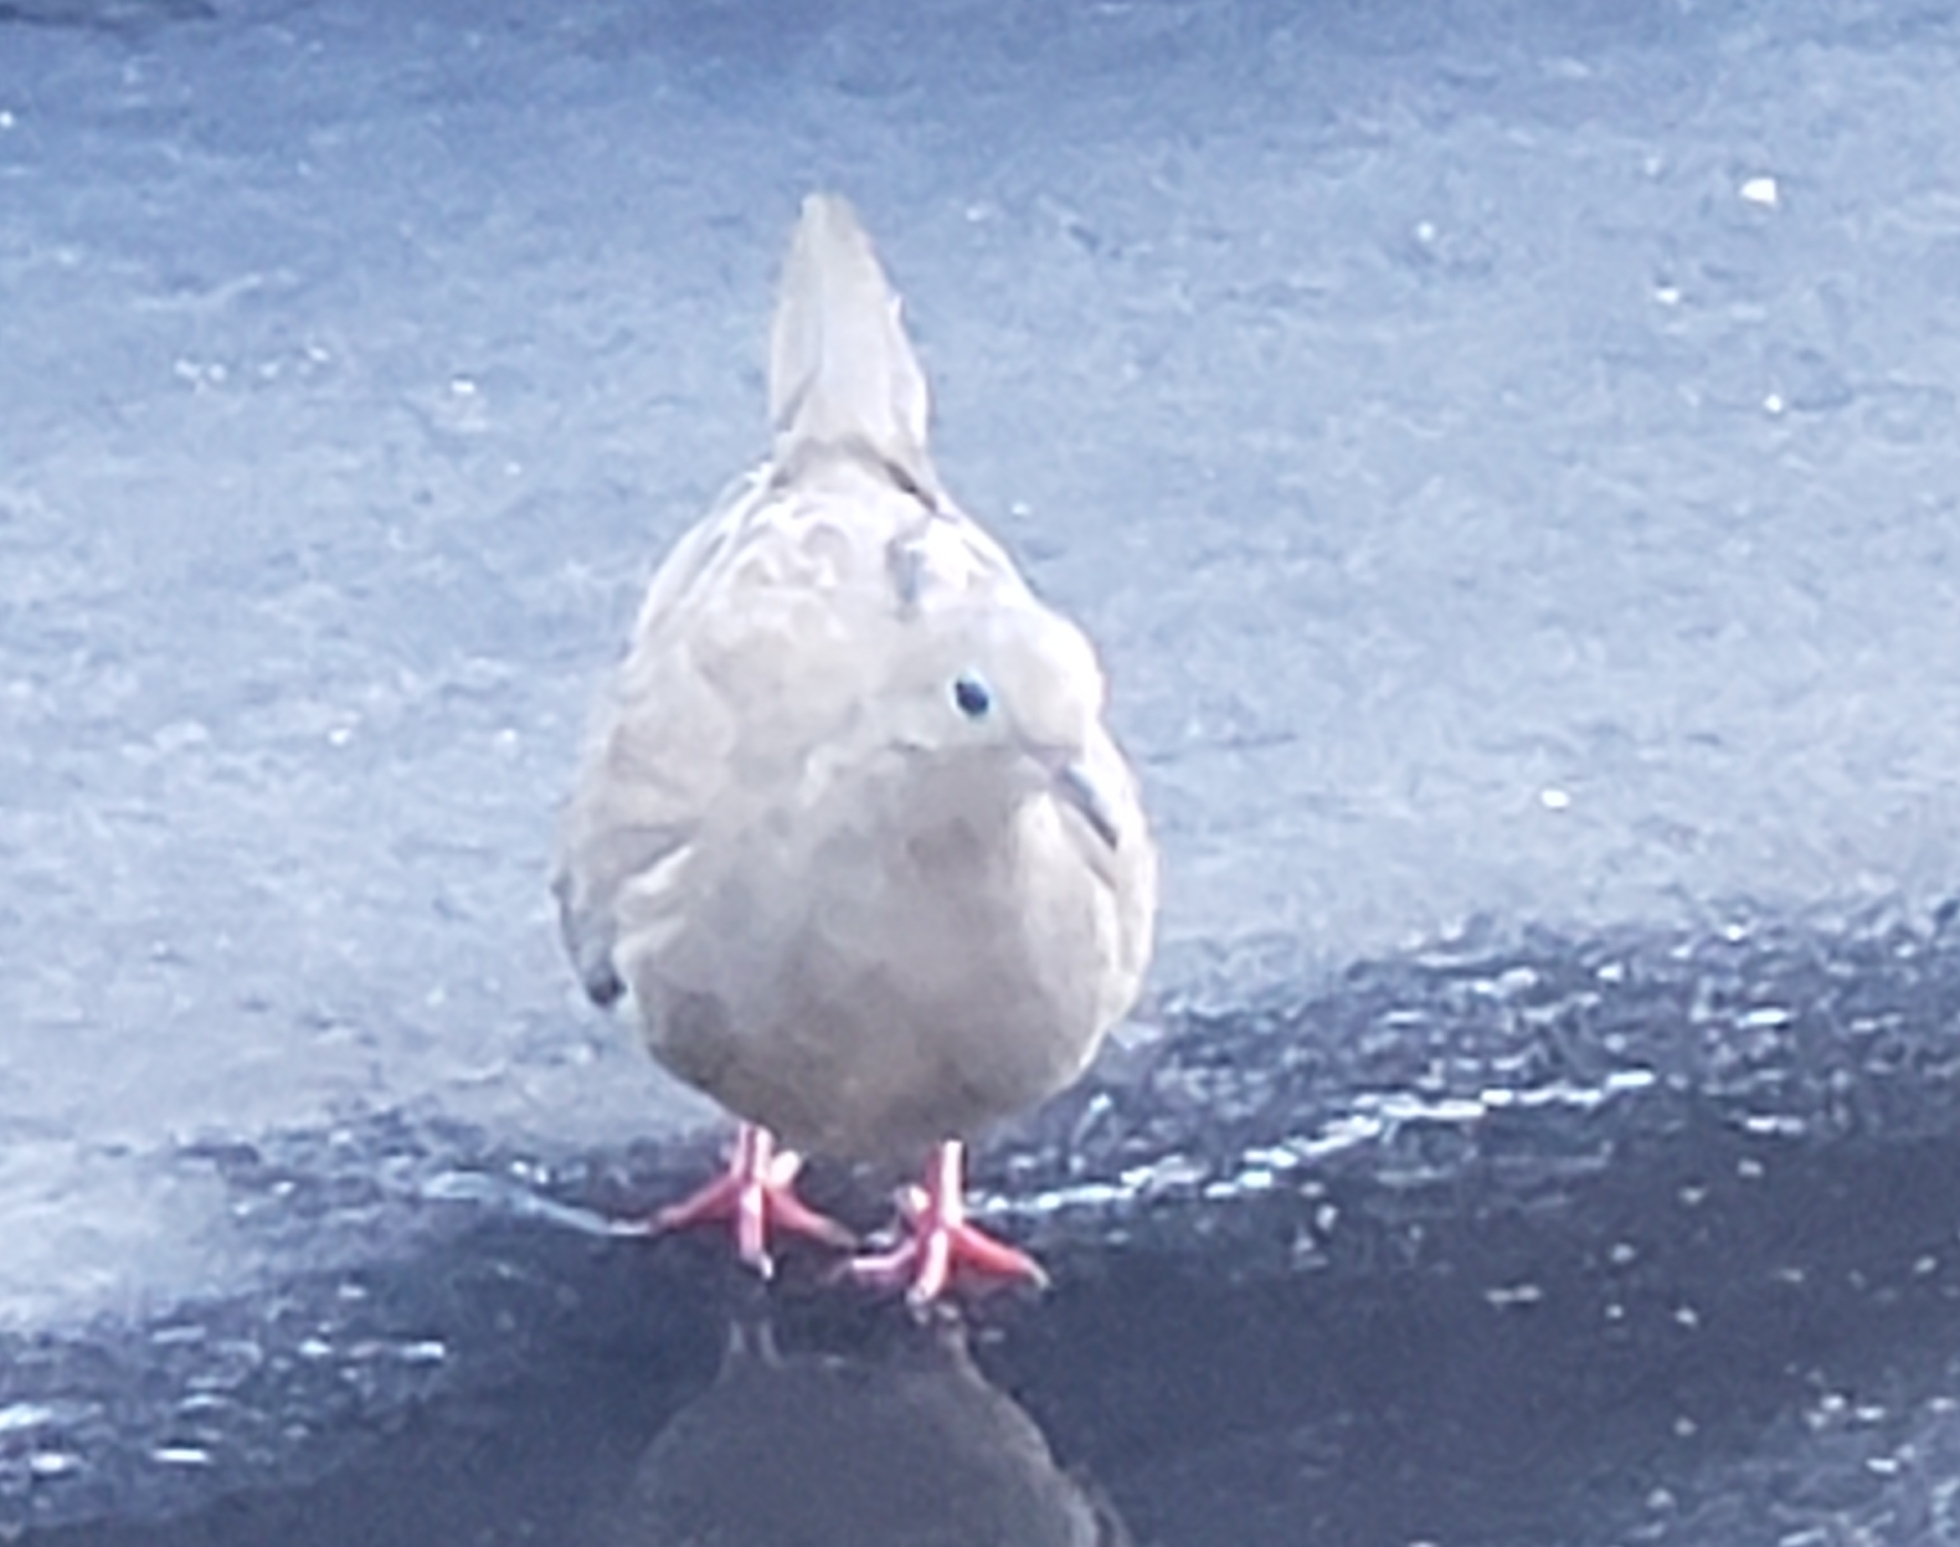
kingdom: Animalia
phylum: Chordata
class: Aves
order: Columbiformes
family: Columbidae
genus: Zenaida
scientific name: Zenaida macroura
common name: Mourning dove
